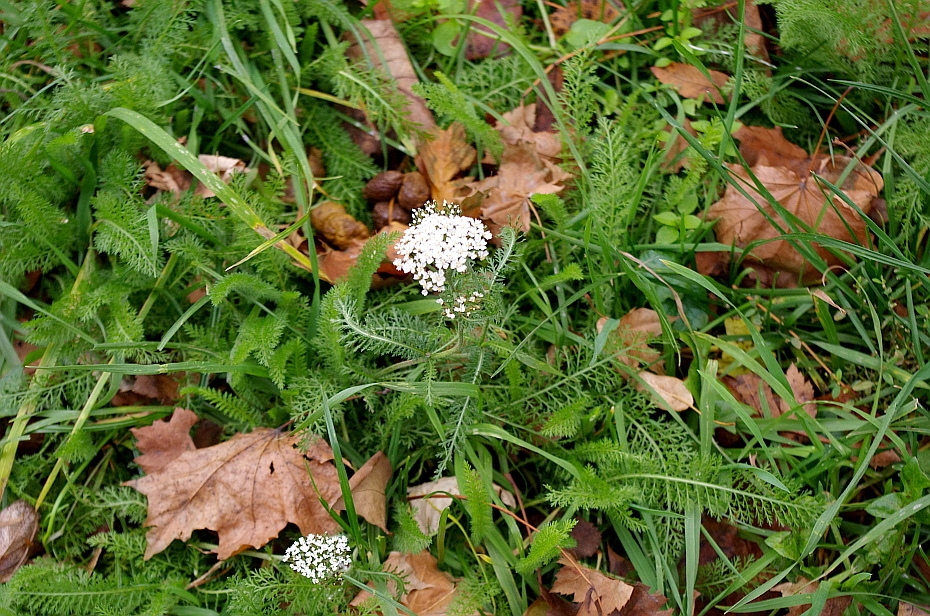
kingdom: Plantae
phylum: Tracheophyta
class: Magnoliopsida
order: Asterales
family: Asteraceae
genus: Achillea
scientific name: Achillea millefolium
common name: Yarrow
